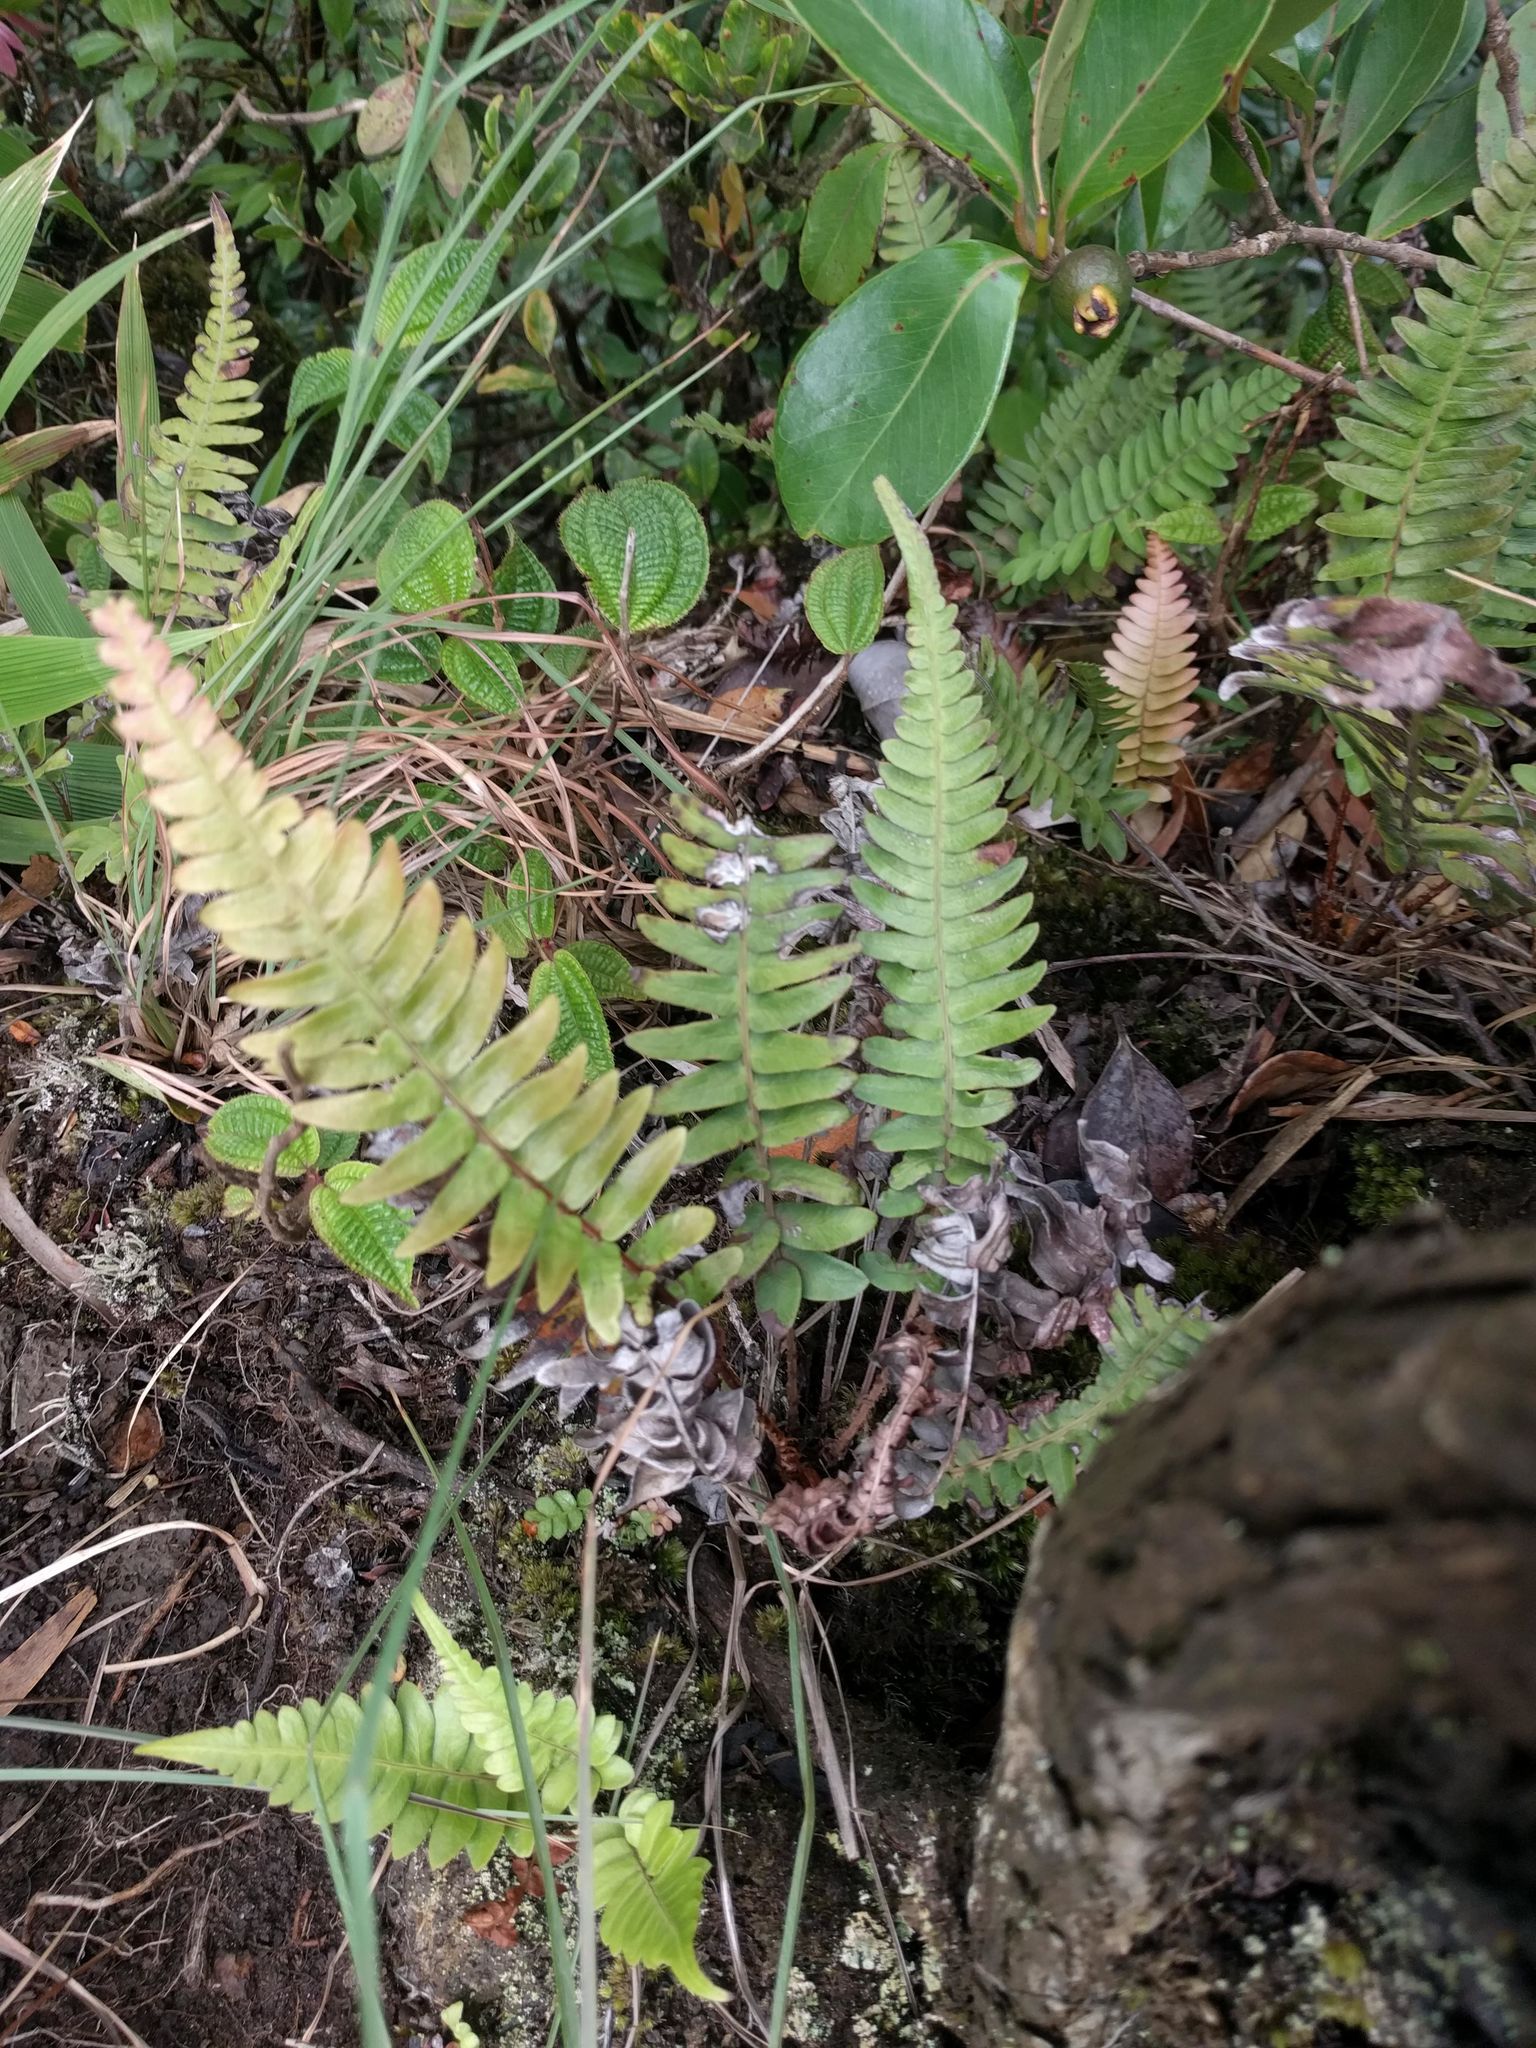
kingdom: Plantae
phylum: Tracheophyta
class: Polypodiopsida
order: Polypodiales
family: Blechnaceae
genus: Blechnum
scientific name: Blechnum appendiculatum
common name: Palm fern
